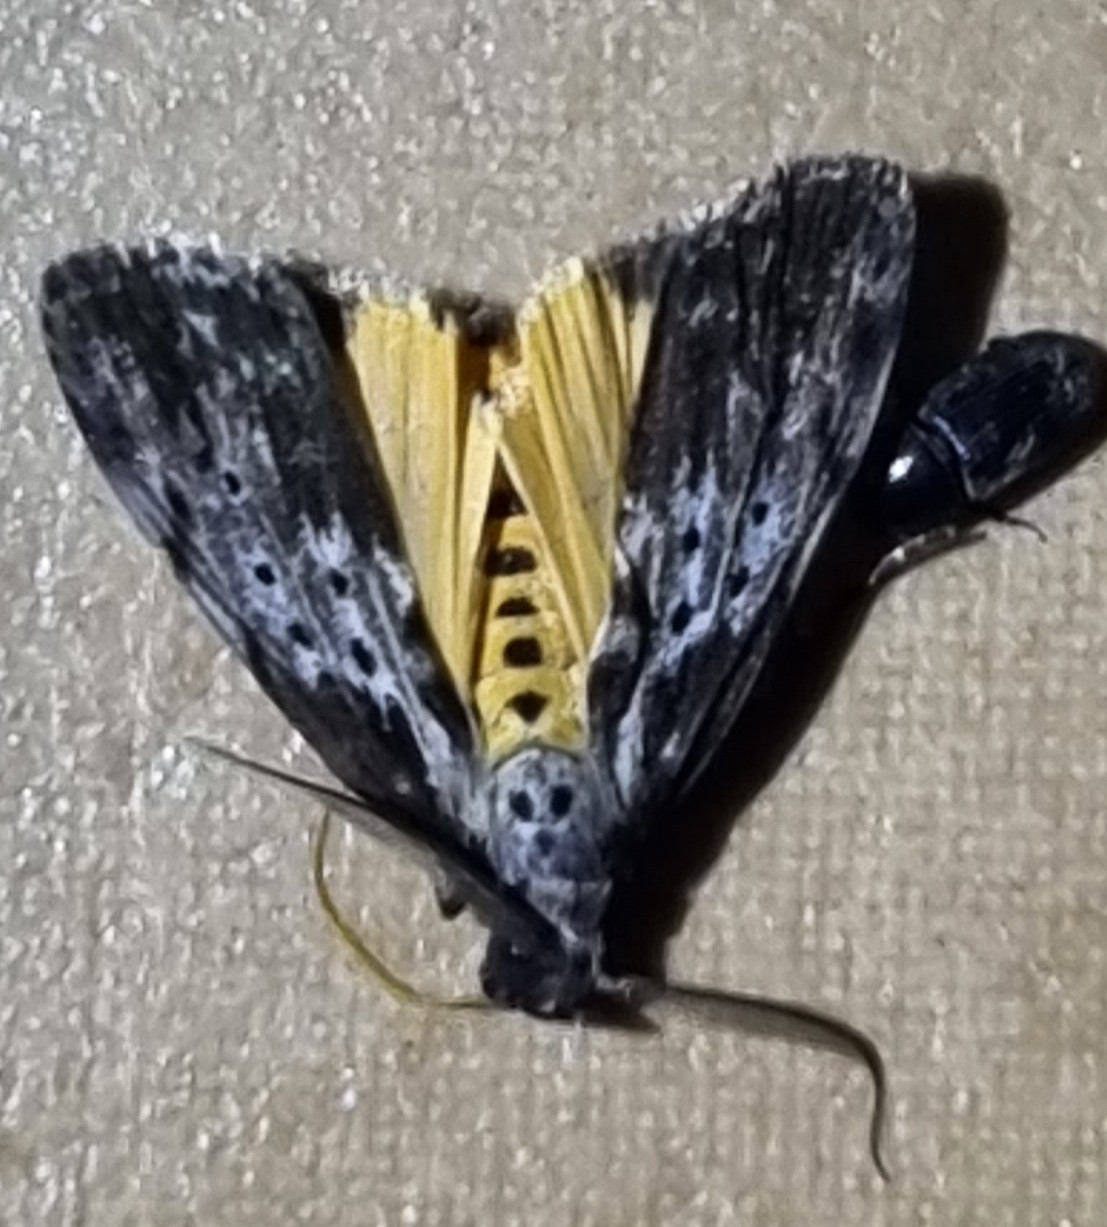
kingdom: Animalia
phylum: Arthropoda
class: Insecta
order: Lepidoptera
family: Erebidae
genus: Digama
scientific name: Digama Sommeria marmorea
